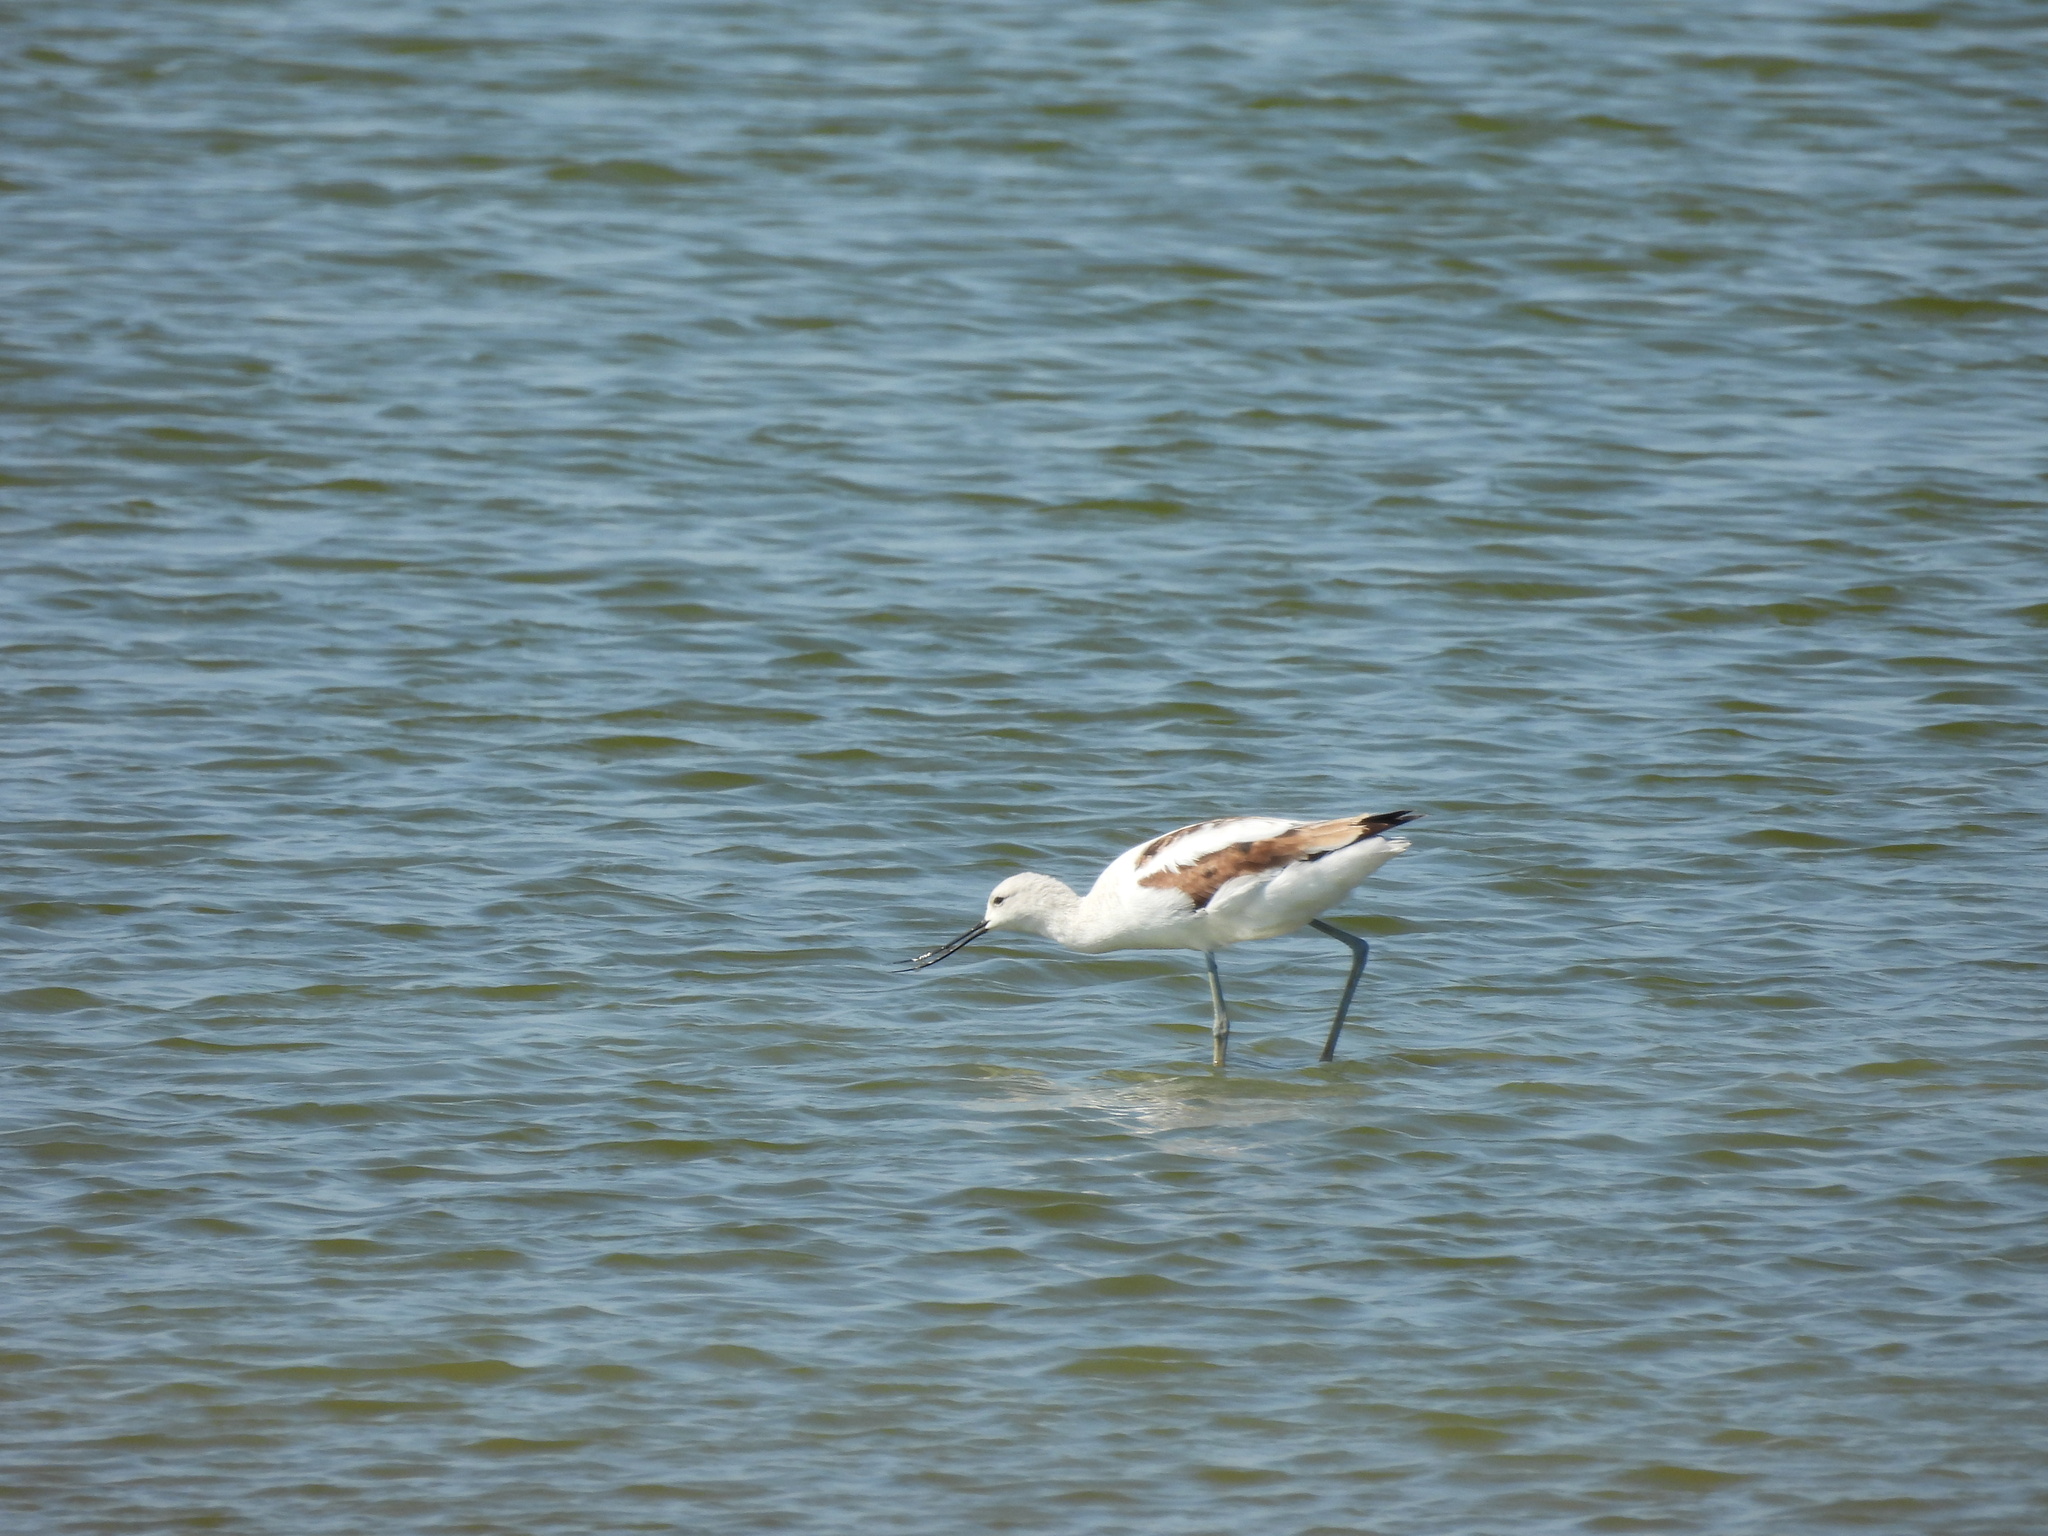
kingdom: Animalia
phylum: Chordata
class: Aves
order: Charadriiformes
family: Recurvirostridae
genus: Recurvirostra
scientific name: Recurvirostra americana
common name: American avocet
